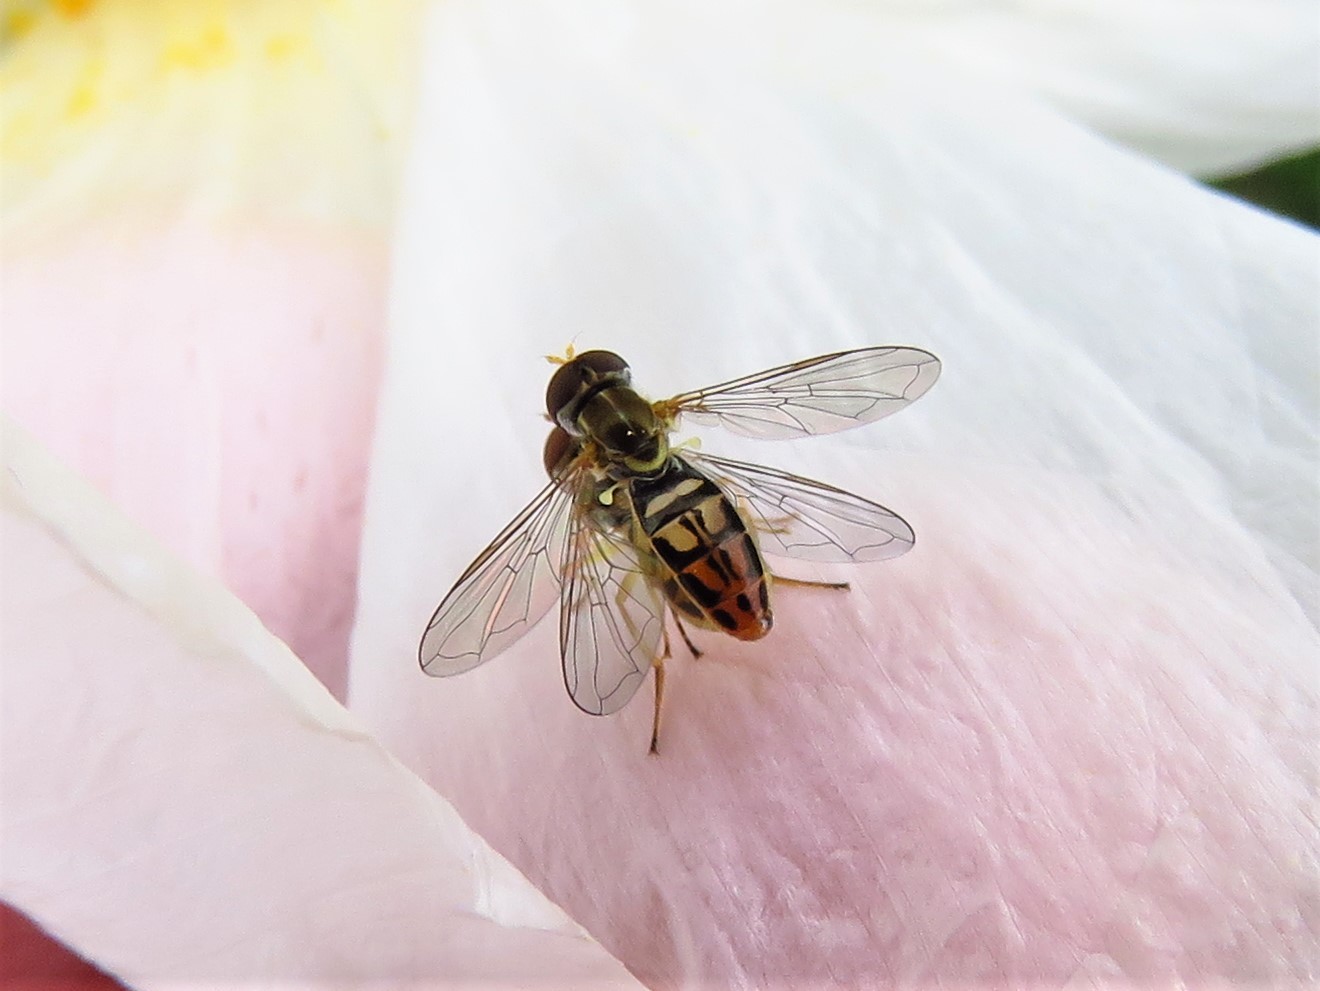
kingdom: Animalia
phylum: Arthropoda
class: Insecta
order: Diptera
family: Syrphidae
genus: Toxomerus
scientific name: Toxomerus marginatus
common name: Syrphid fly
